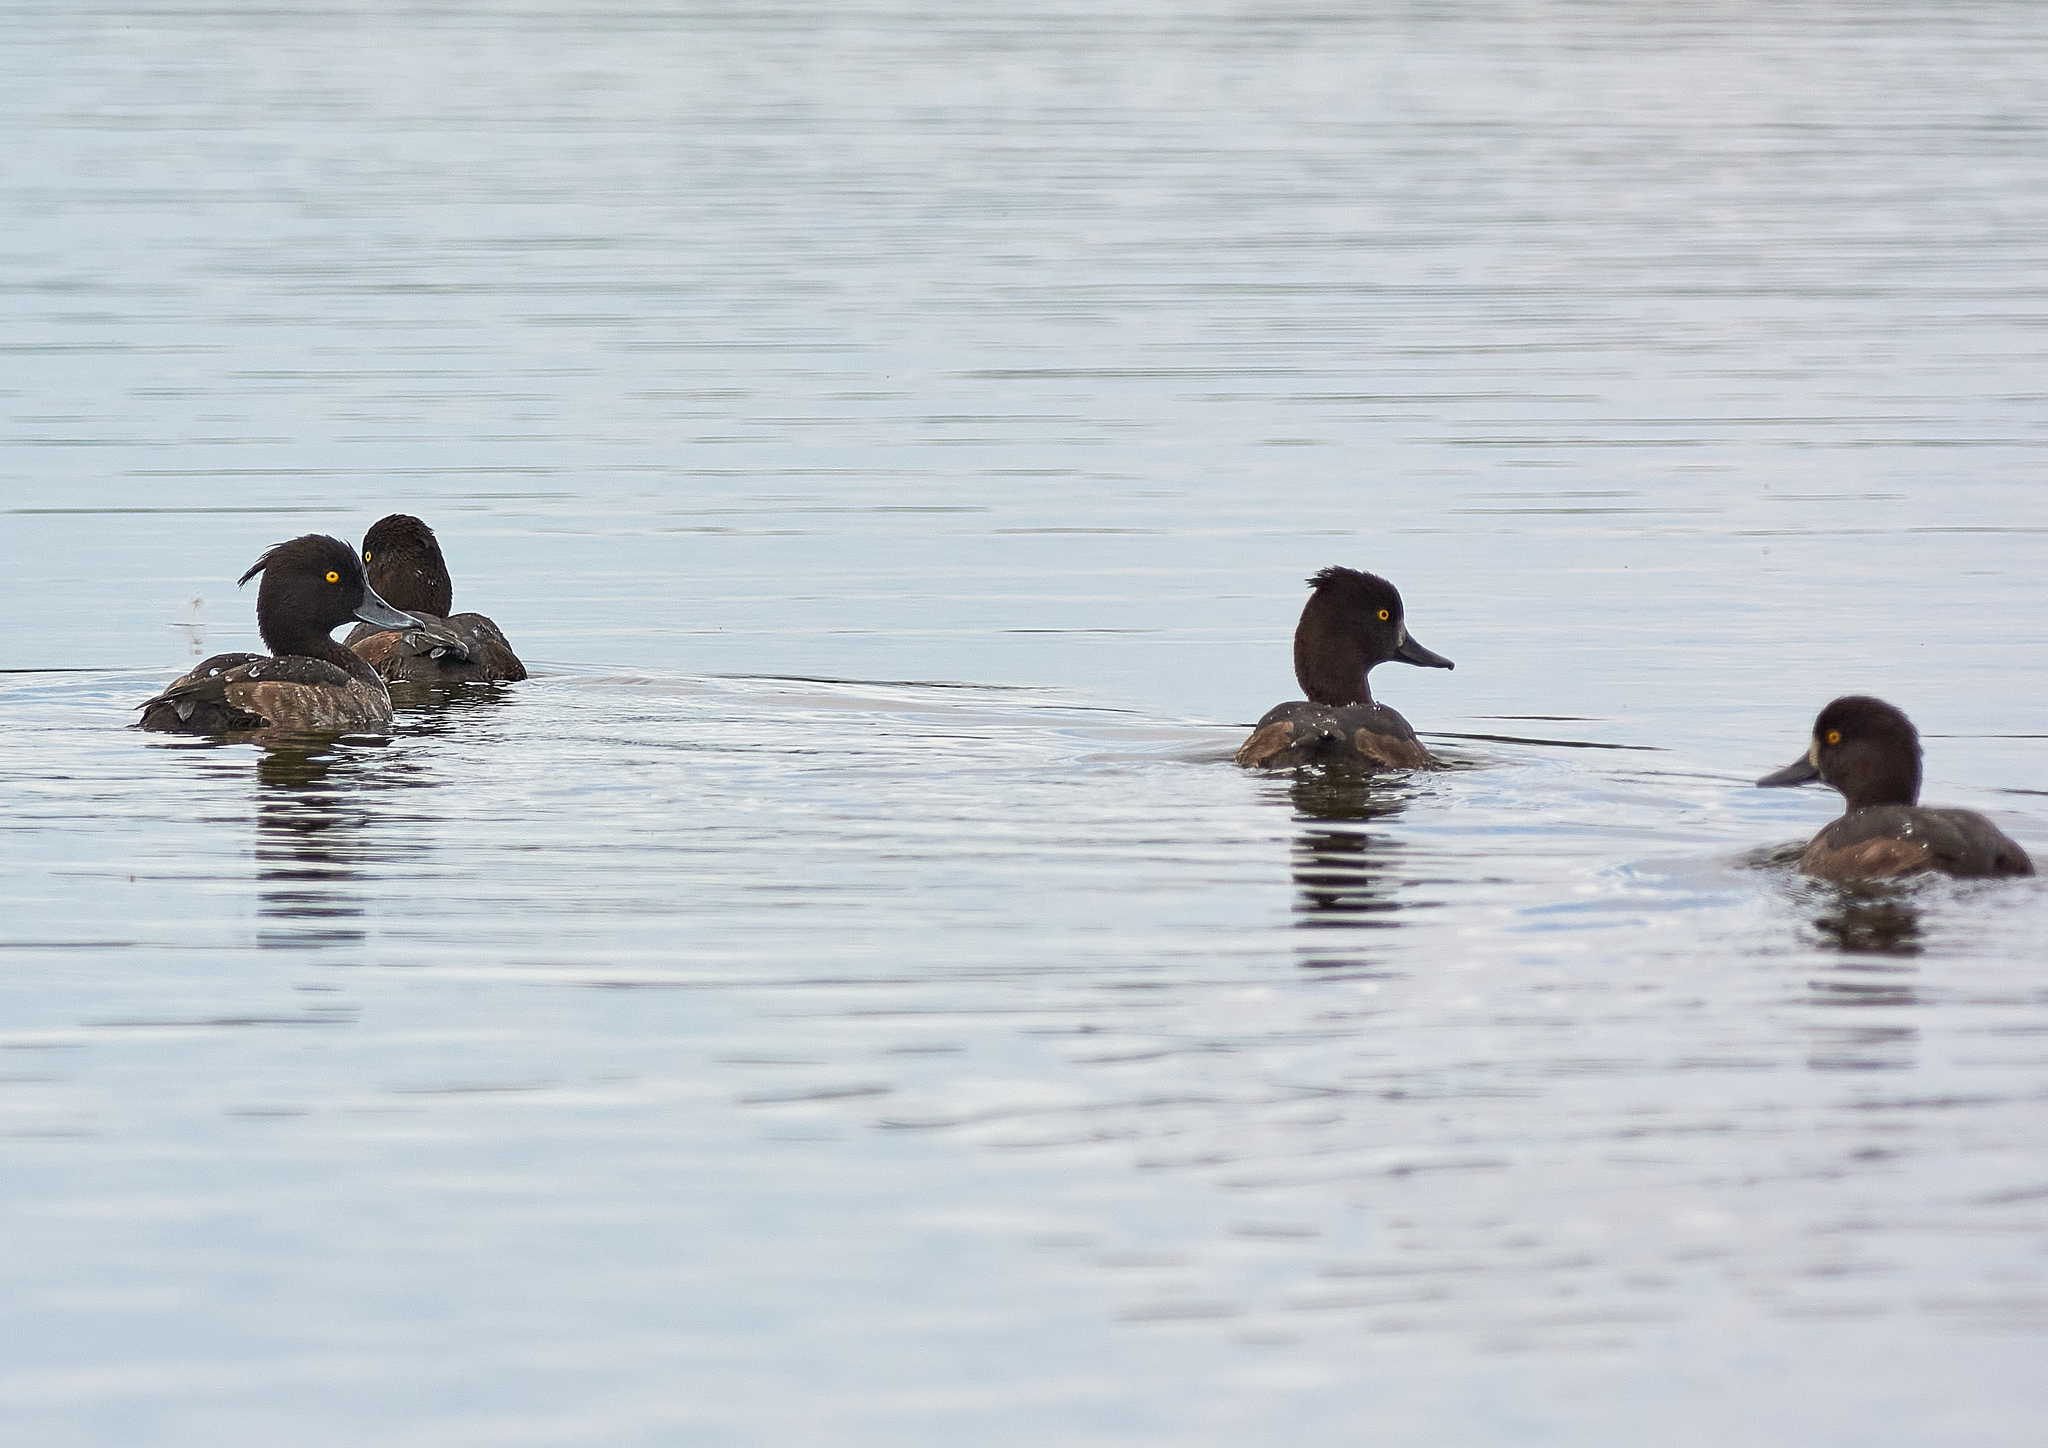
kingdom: Animalia
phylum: Chordata
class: Aves
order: Anseriformes
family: Anatidae
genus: Aythya
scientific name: Aythya fuligula
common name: Tufted duck
